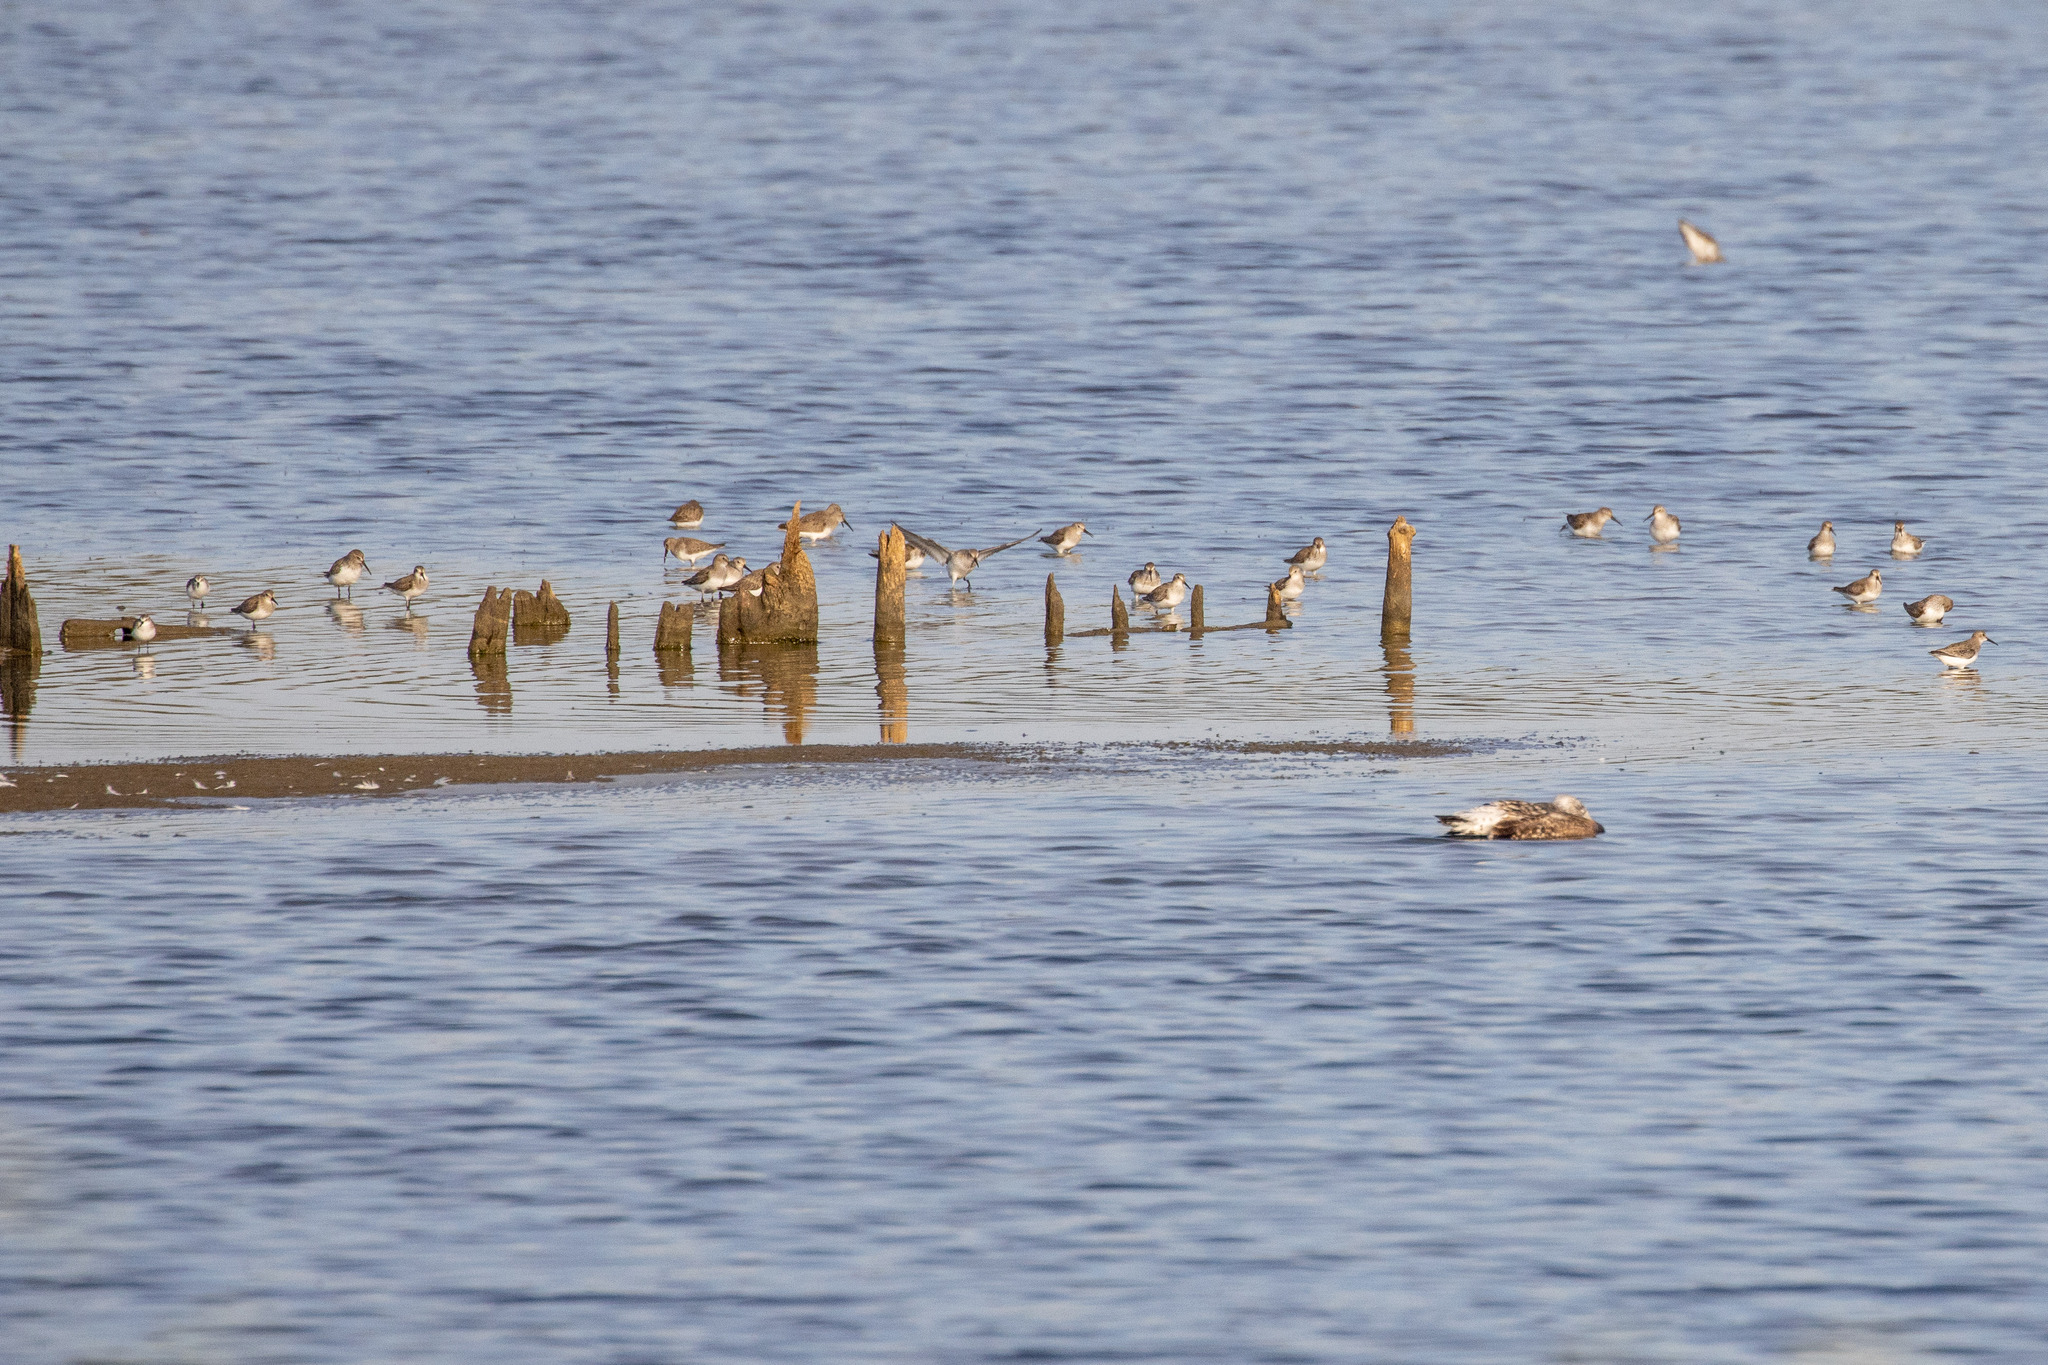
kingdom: Animalia
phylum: Chordata
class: Aves
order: Charadriiformes
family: Scolopacidae
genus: Calidris
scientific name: Calidris alpina
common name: Dunlin
